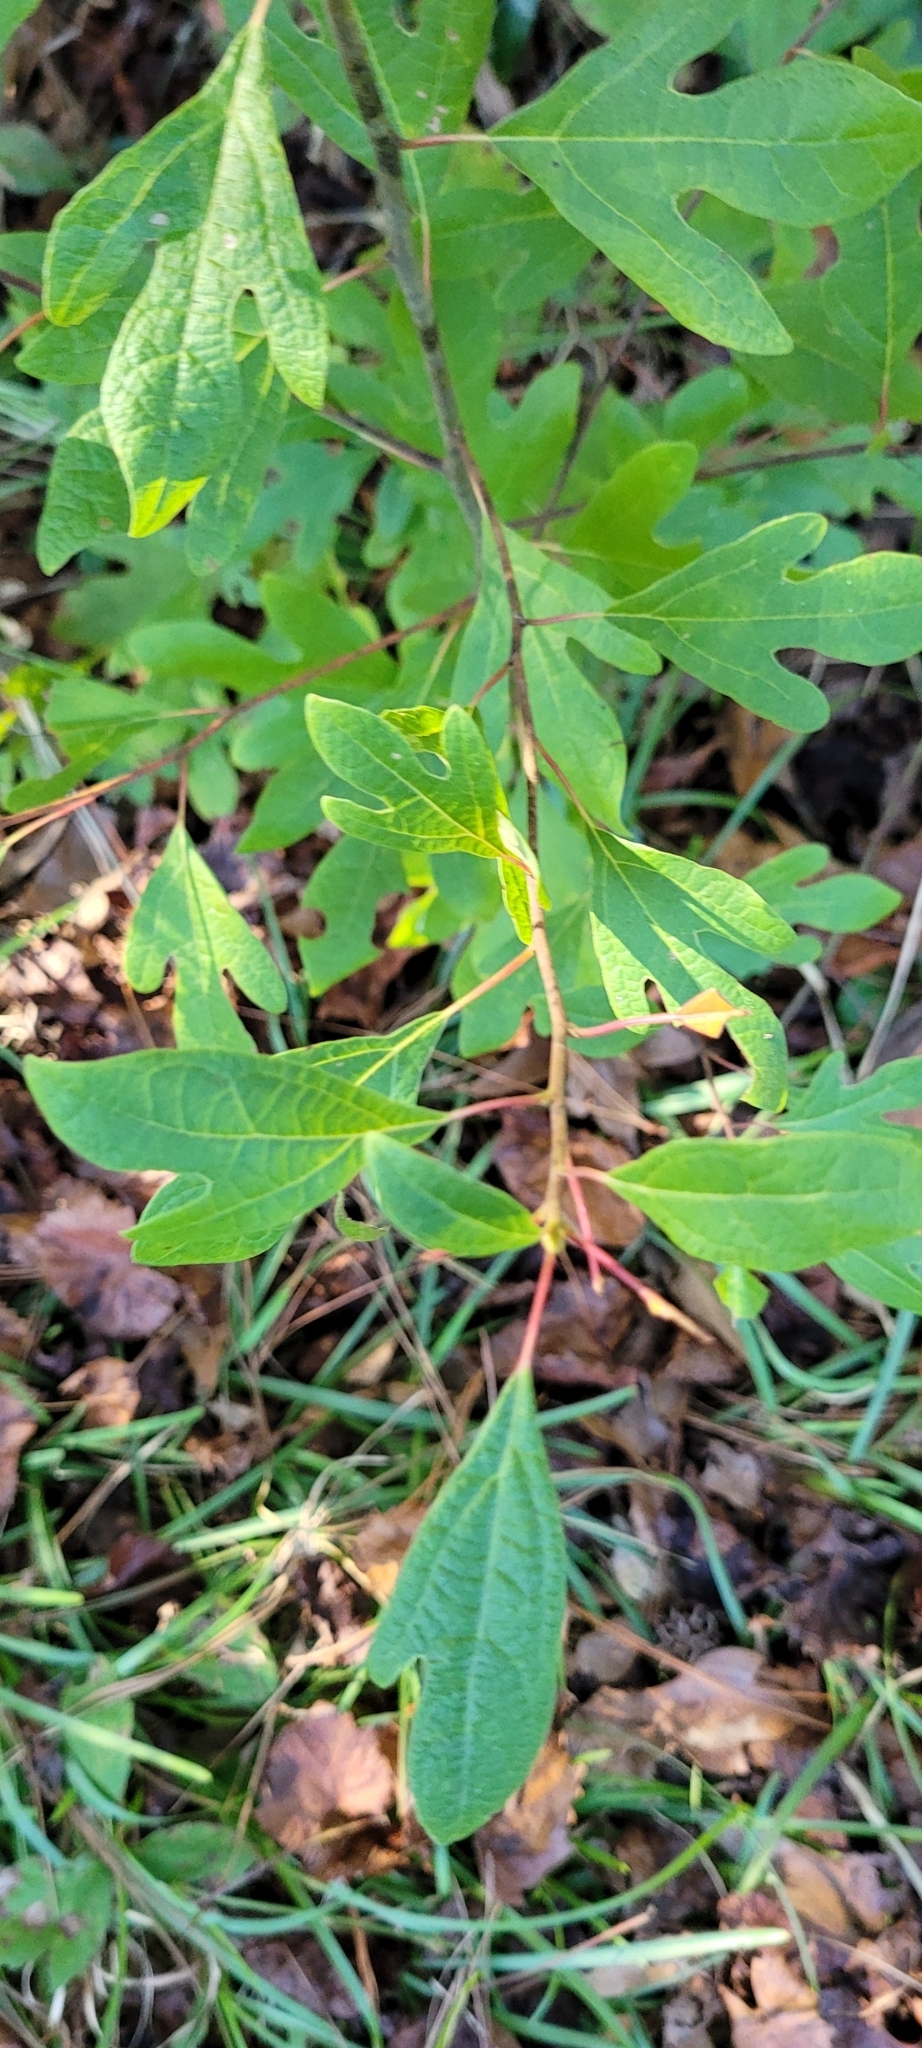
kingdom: Plantae
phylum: Tracheophyta
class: Magnoliopsida
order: Laurales
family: Lauraceae
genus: Sassafras
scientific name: Sassafras albidum
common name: Sassafras
